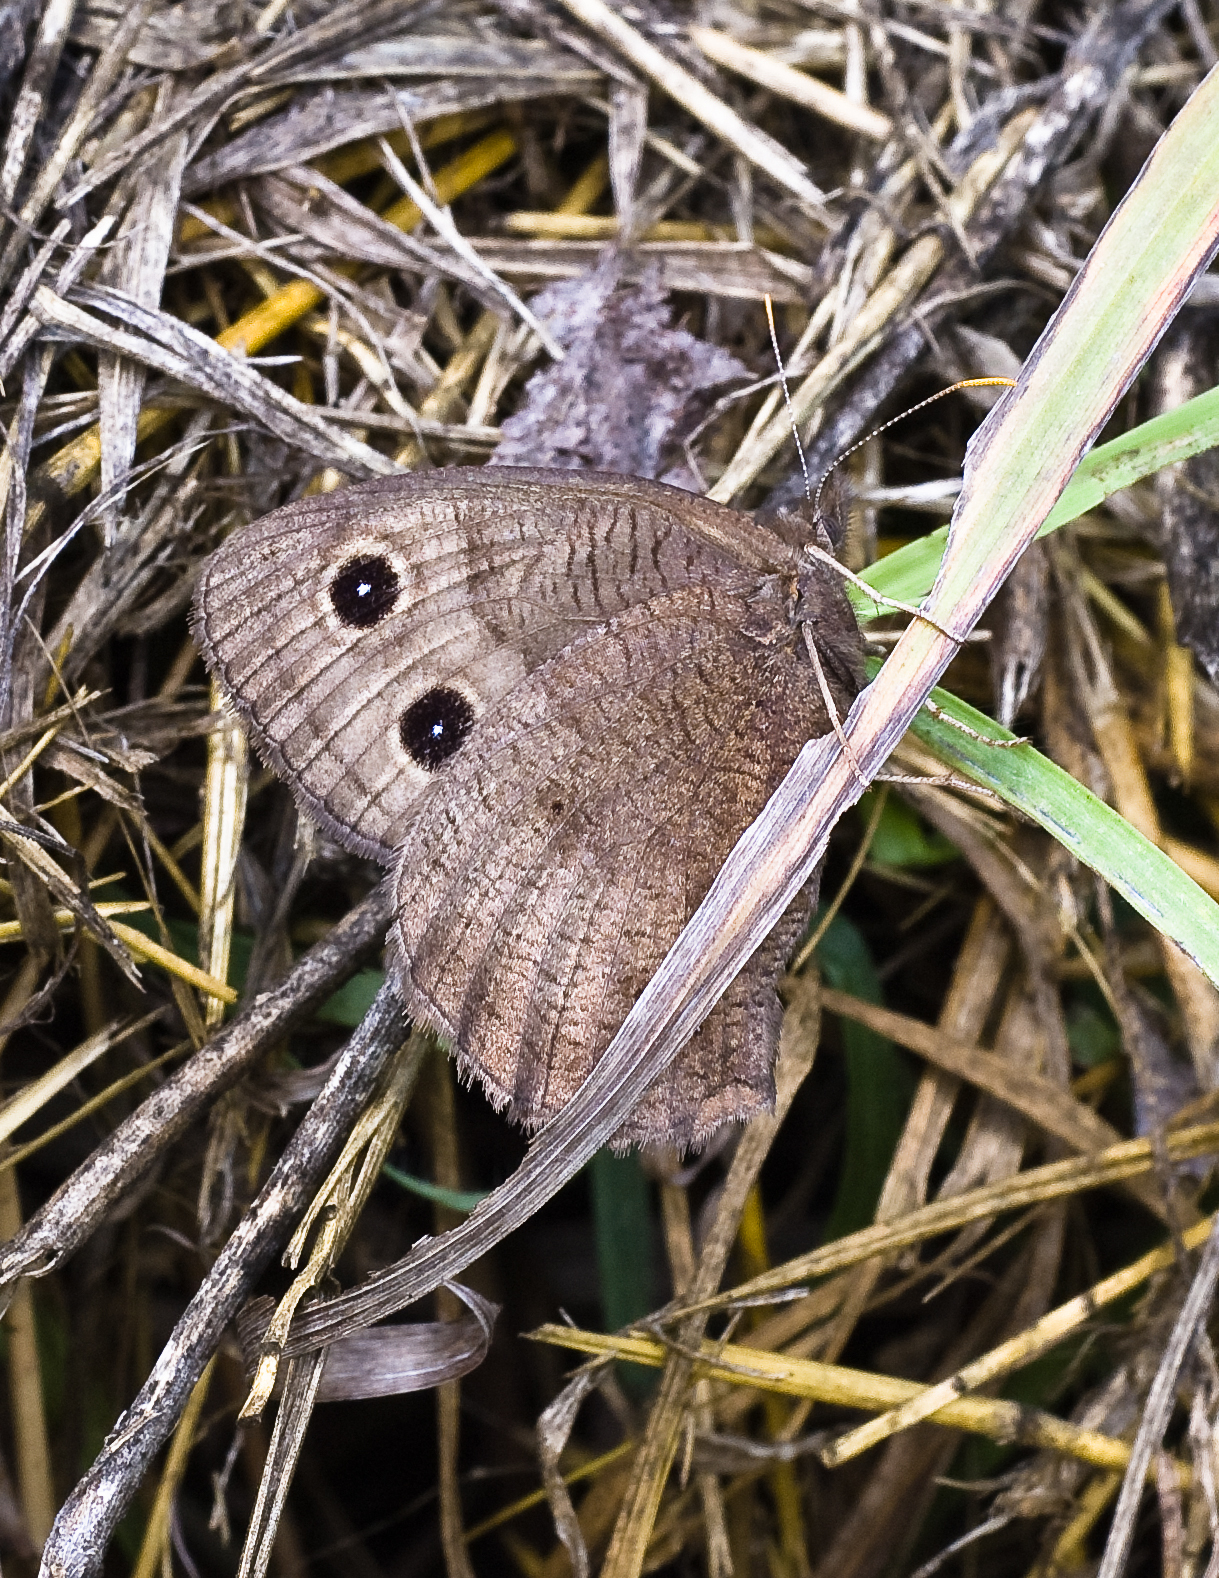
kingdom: Animalia
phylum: Arthropoda
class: Insecta
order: Lepidoptera
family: Nymphalidae
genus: Cercyonis
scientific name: Cercyonis pegala
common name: Common wood-nymph
